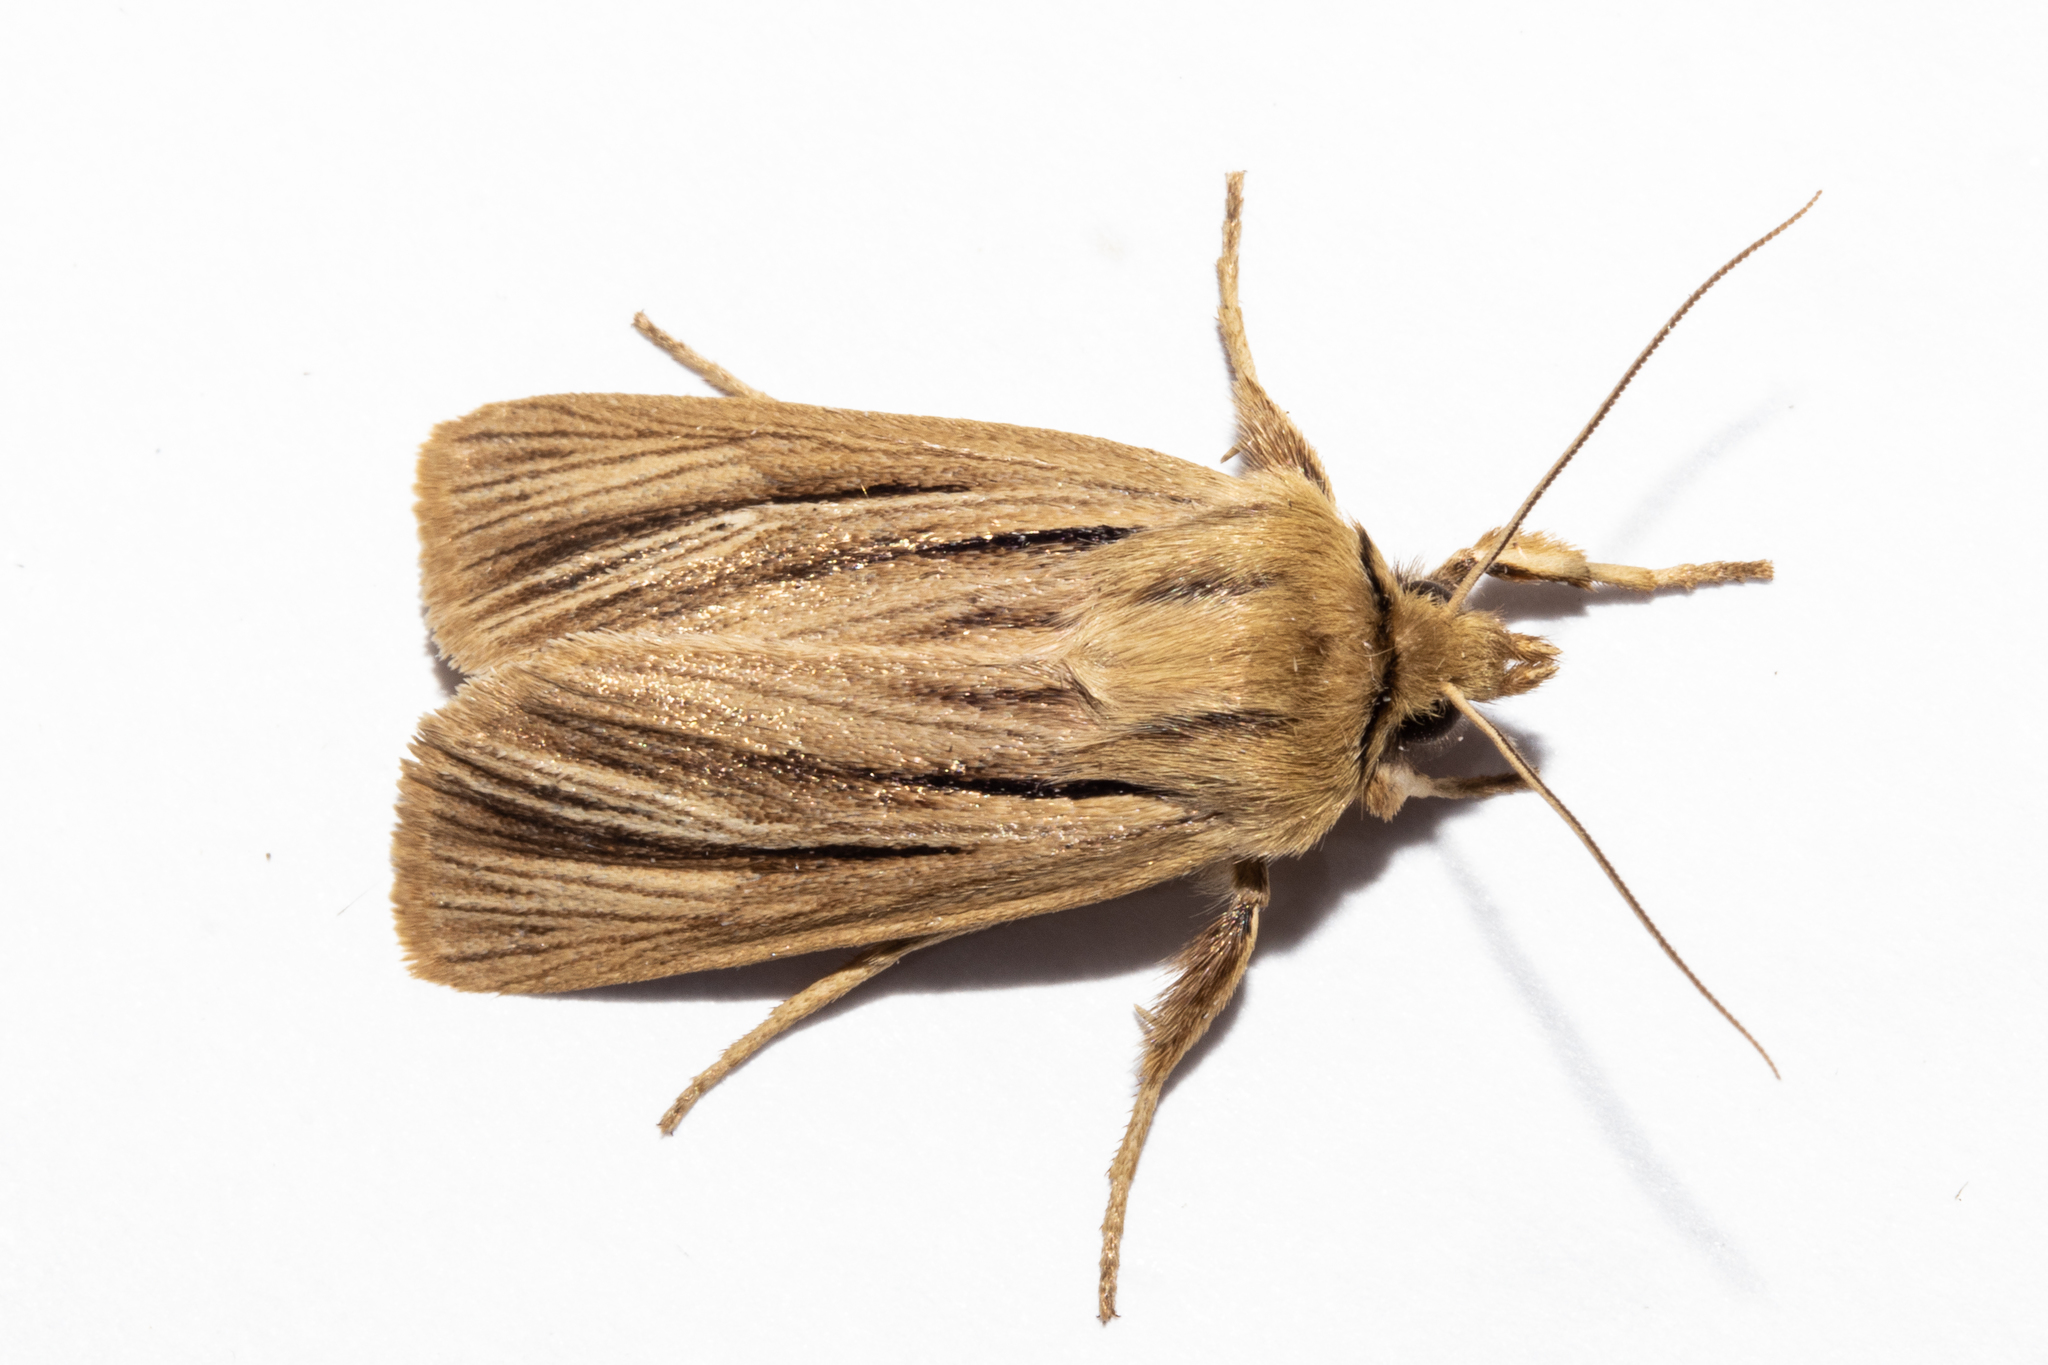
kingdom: Animalia
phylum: Arthropoda
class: Insecta
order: Lepidoptera
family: Noctuidae
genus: Ichneutica
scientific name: Ichneutica
